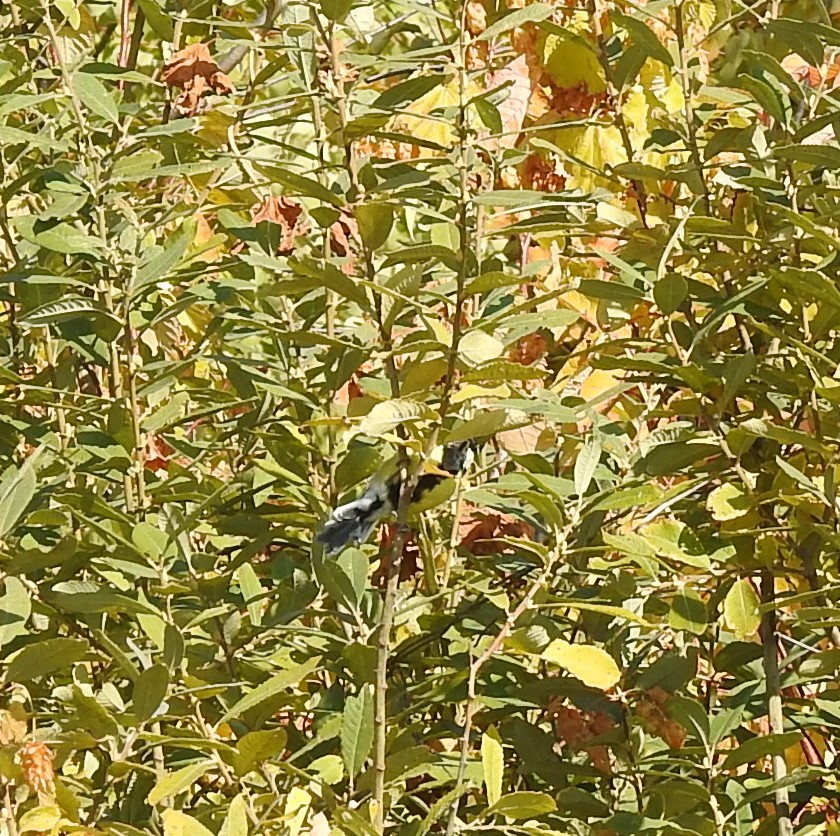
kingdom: Animalia
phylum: Chordata
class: Aves
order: Passeriformes
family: Paridae
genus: Parus
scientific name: Parus major
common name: Great tit
